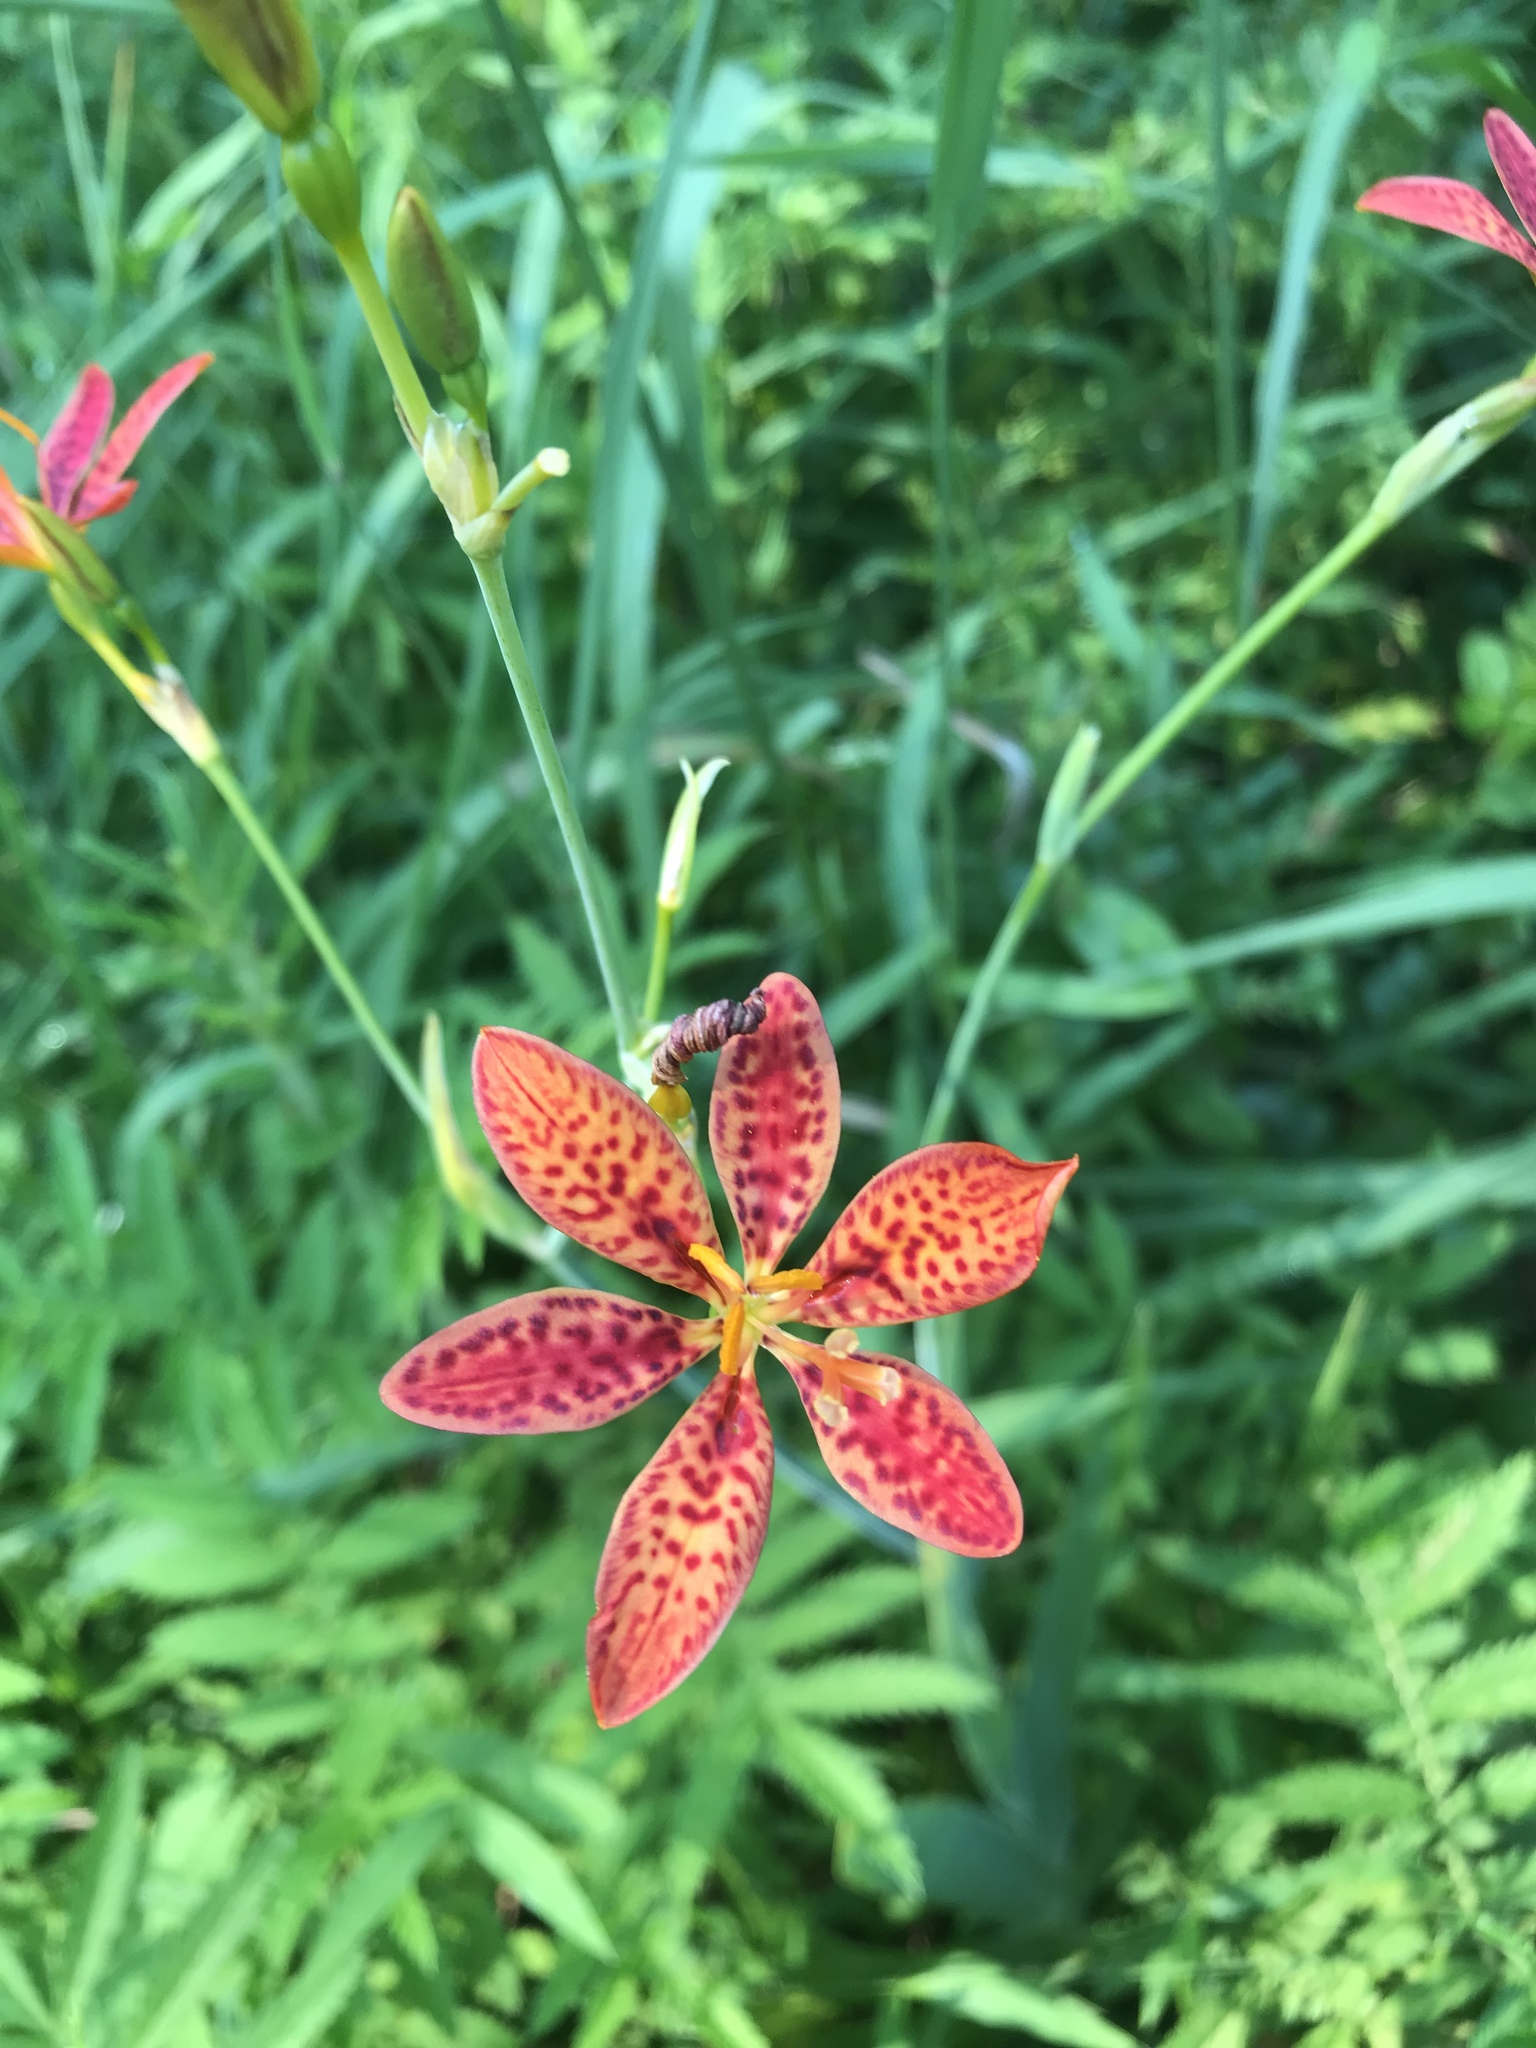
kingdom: Plantae
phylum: Tracheophyta
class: Liliopsida
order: Asparagales
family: Iridaceae
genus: Iris
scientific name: Iris domestica
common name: Belamcanda
